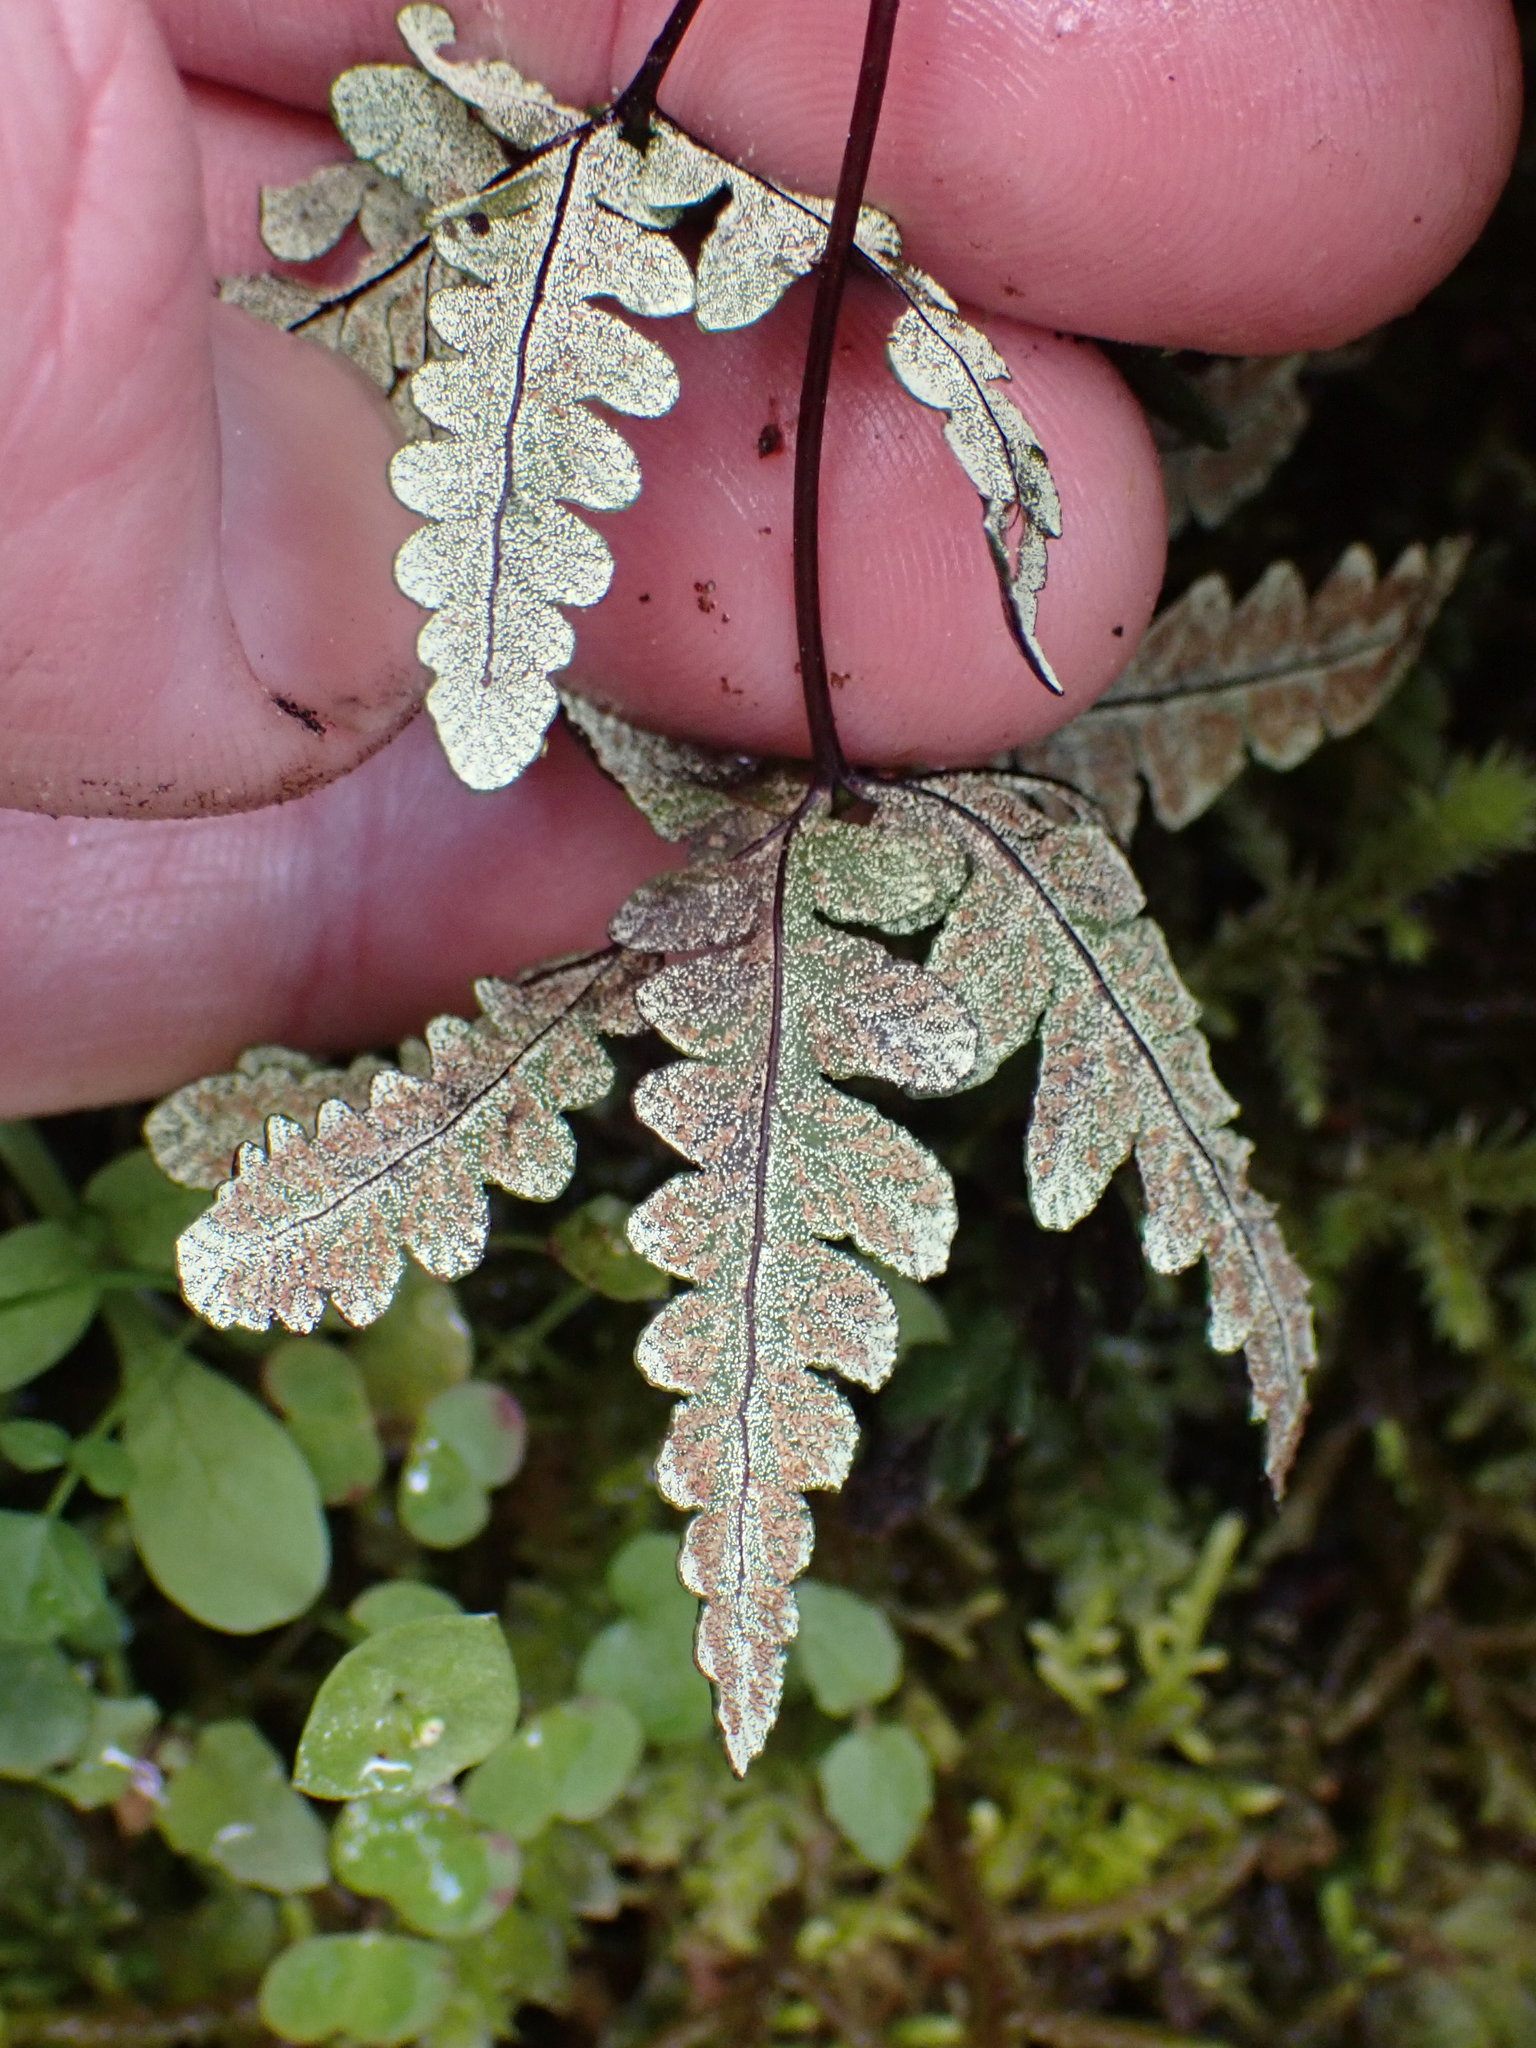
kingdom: Plantae
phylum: Tracheophyta
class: Polypodiopsida
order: Polypodiales
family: Pteridaceae
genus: Pentagramma
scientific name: Pentagramma triangularis
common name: Gold fern
